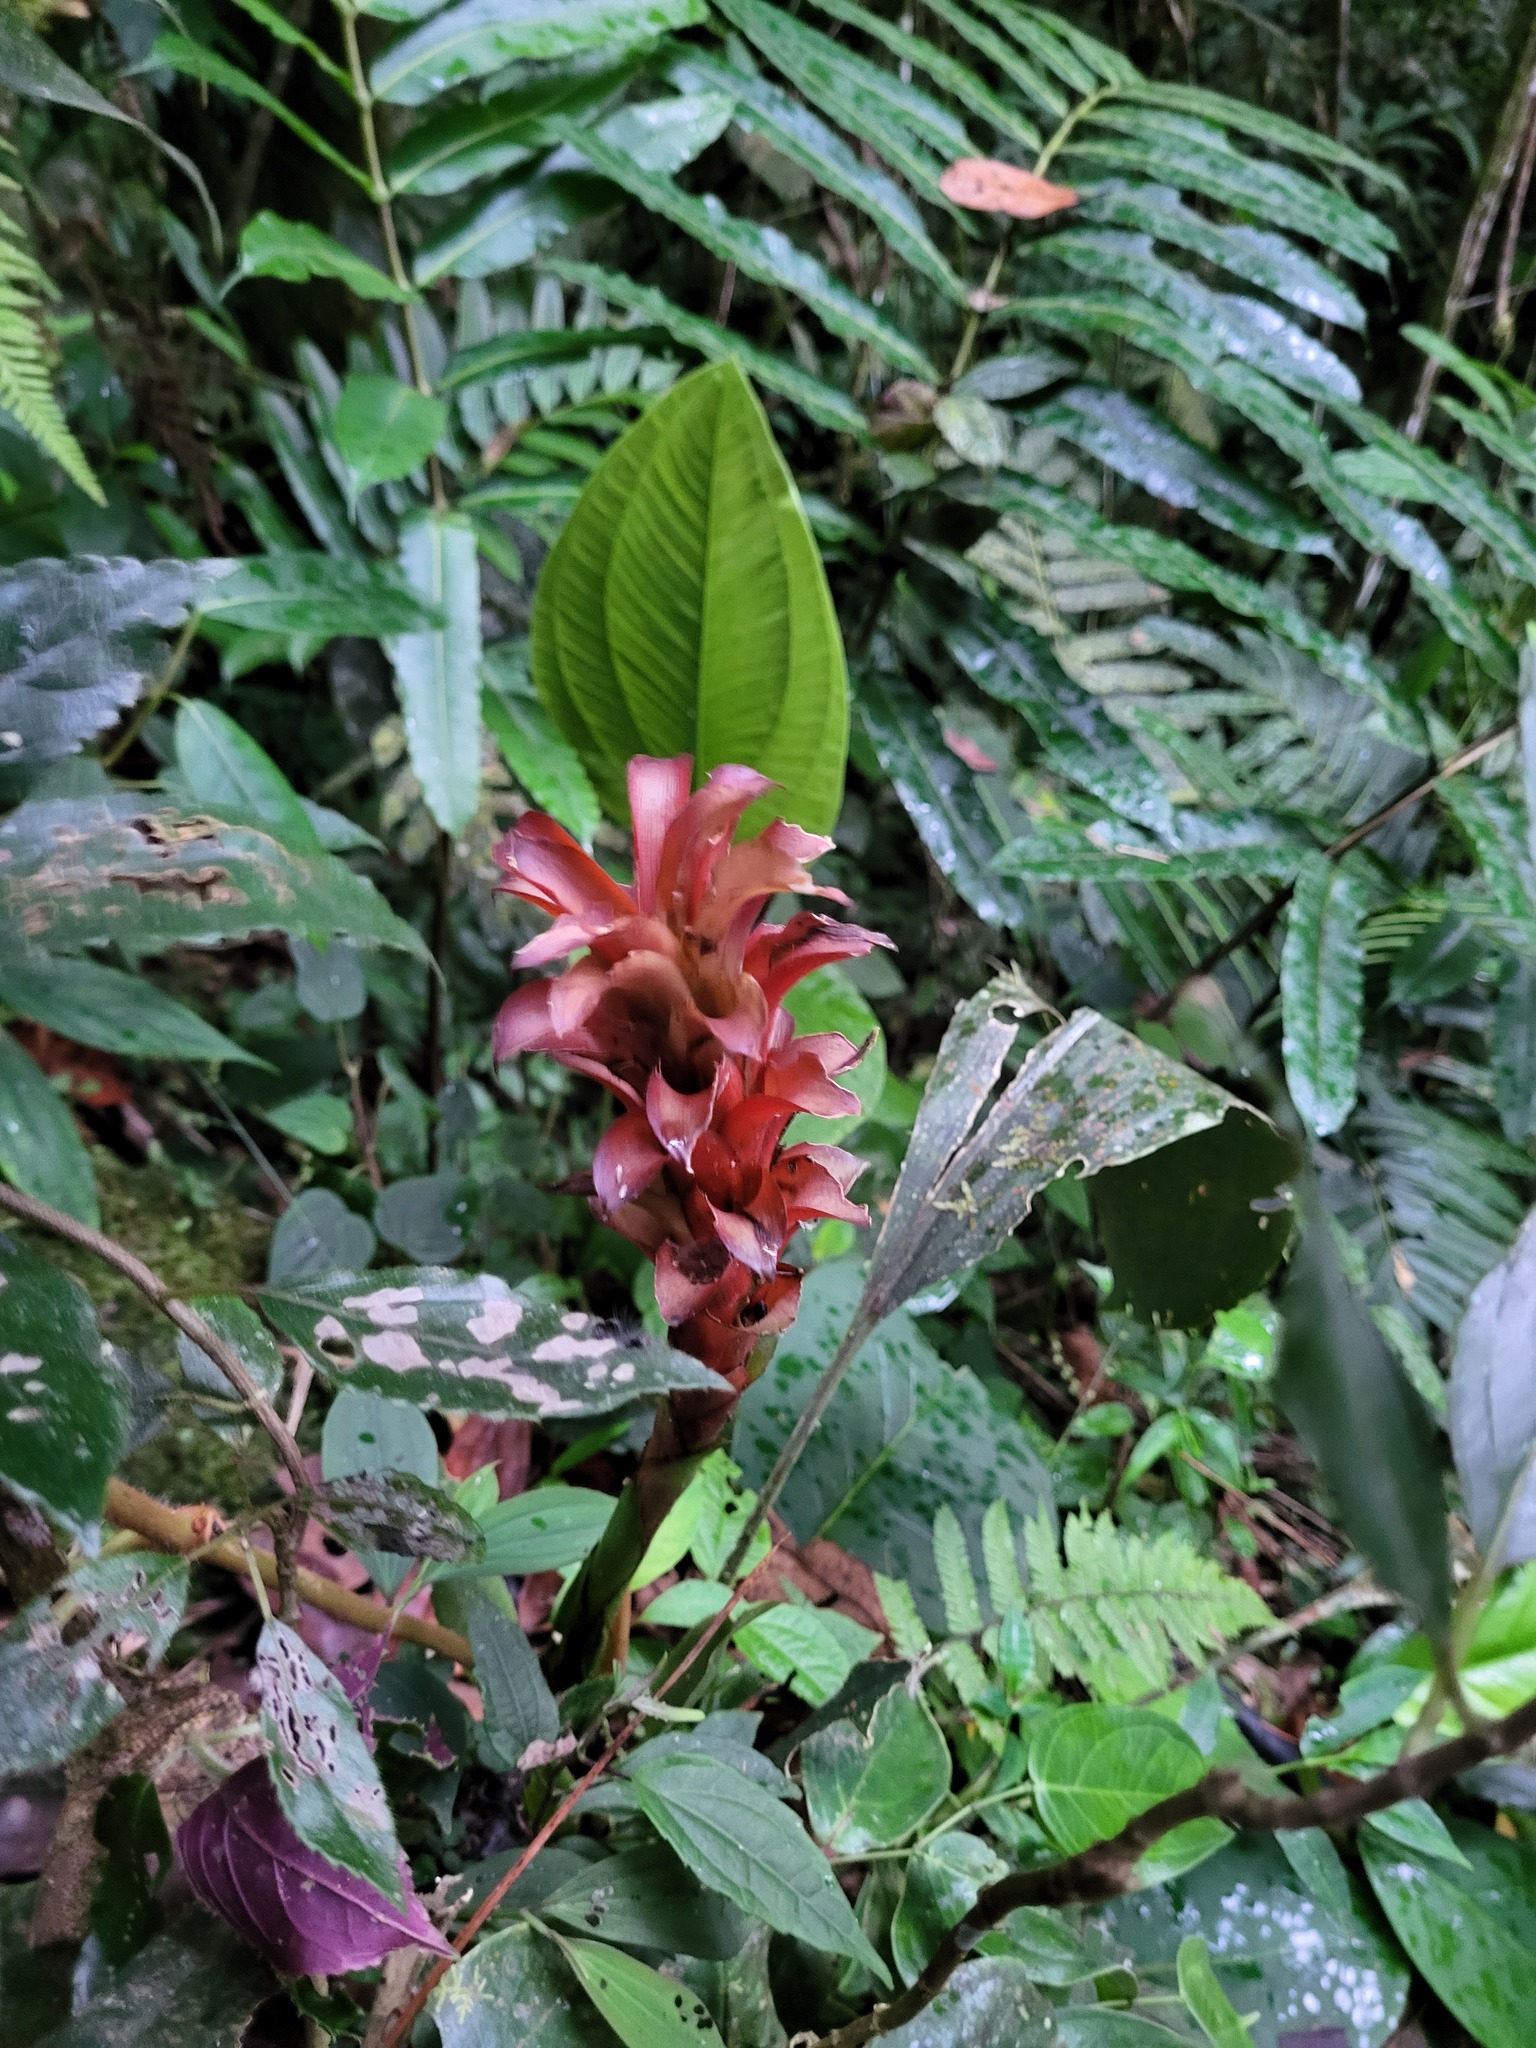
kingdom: Plantae
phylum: Tracheophyta
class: Liliopsida
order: Poales
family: Bromeliaceae
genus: Pitcairnia
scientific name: Pitcairnia nigra
